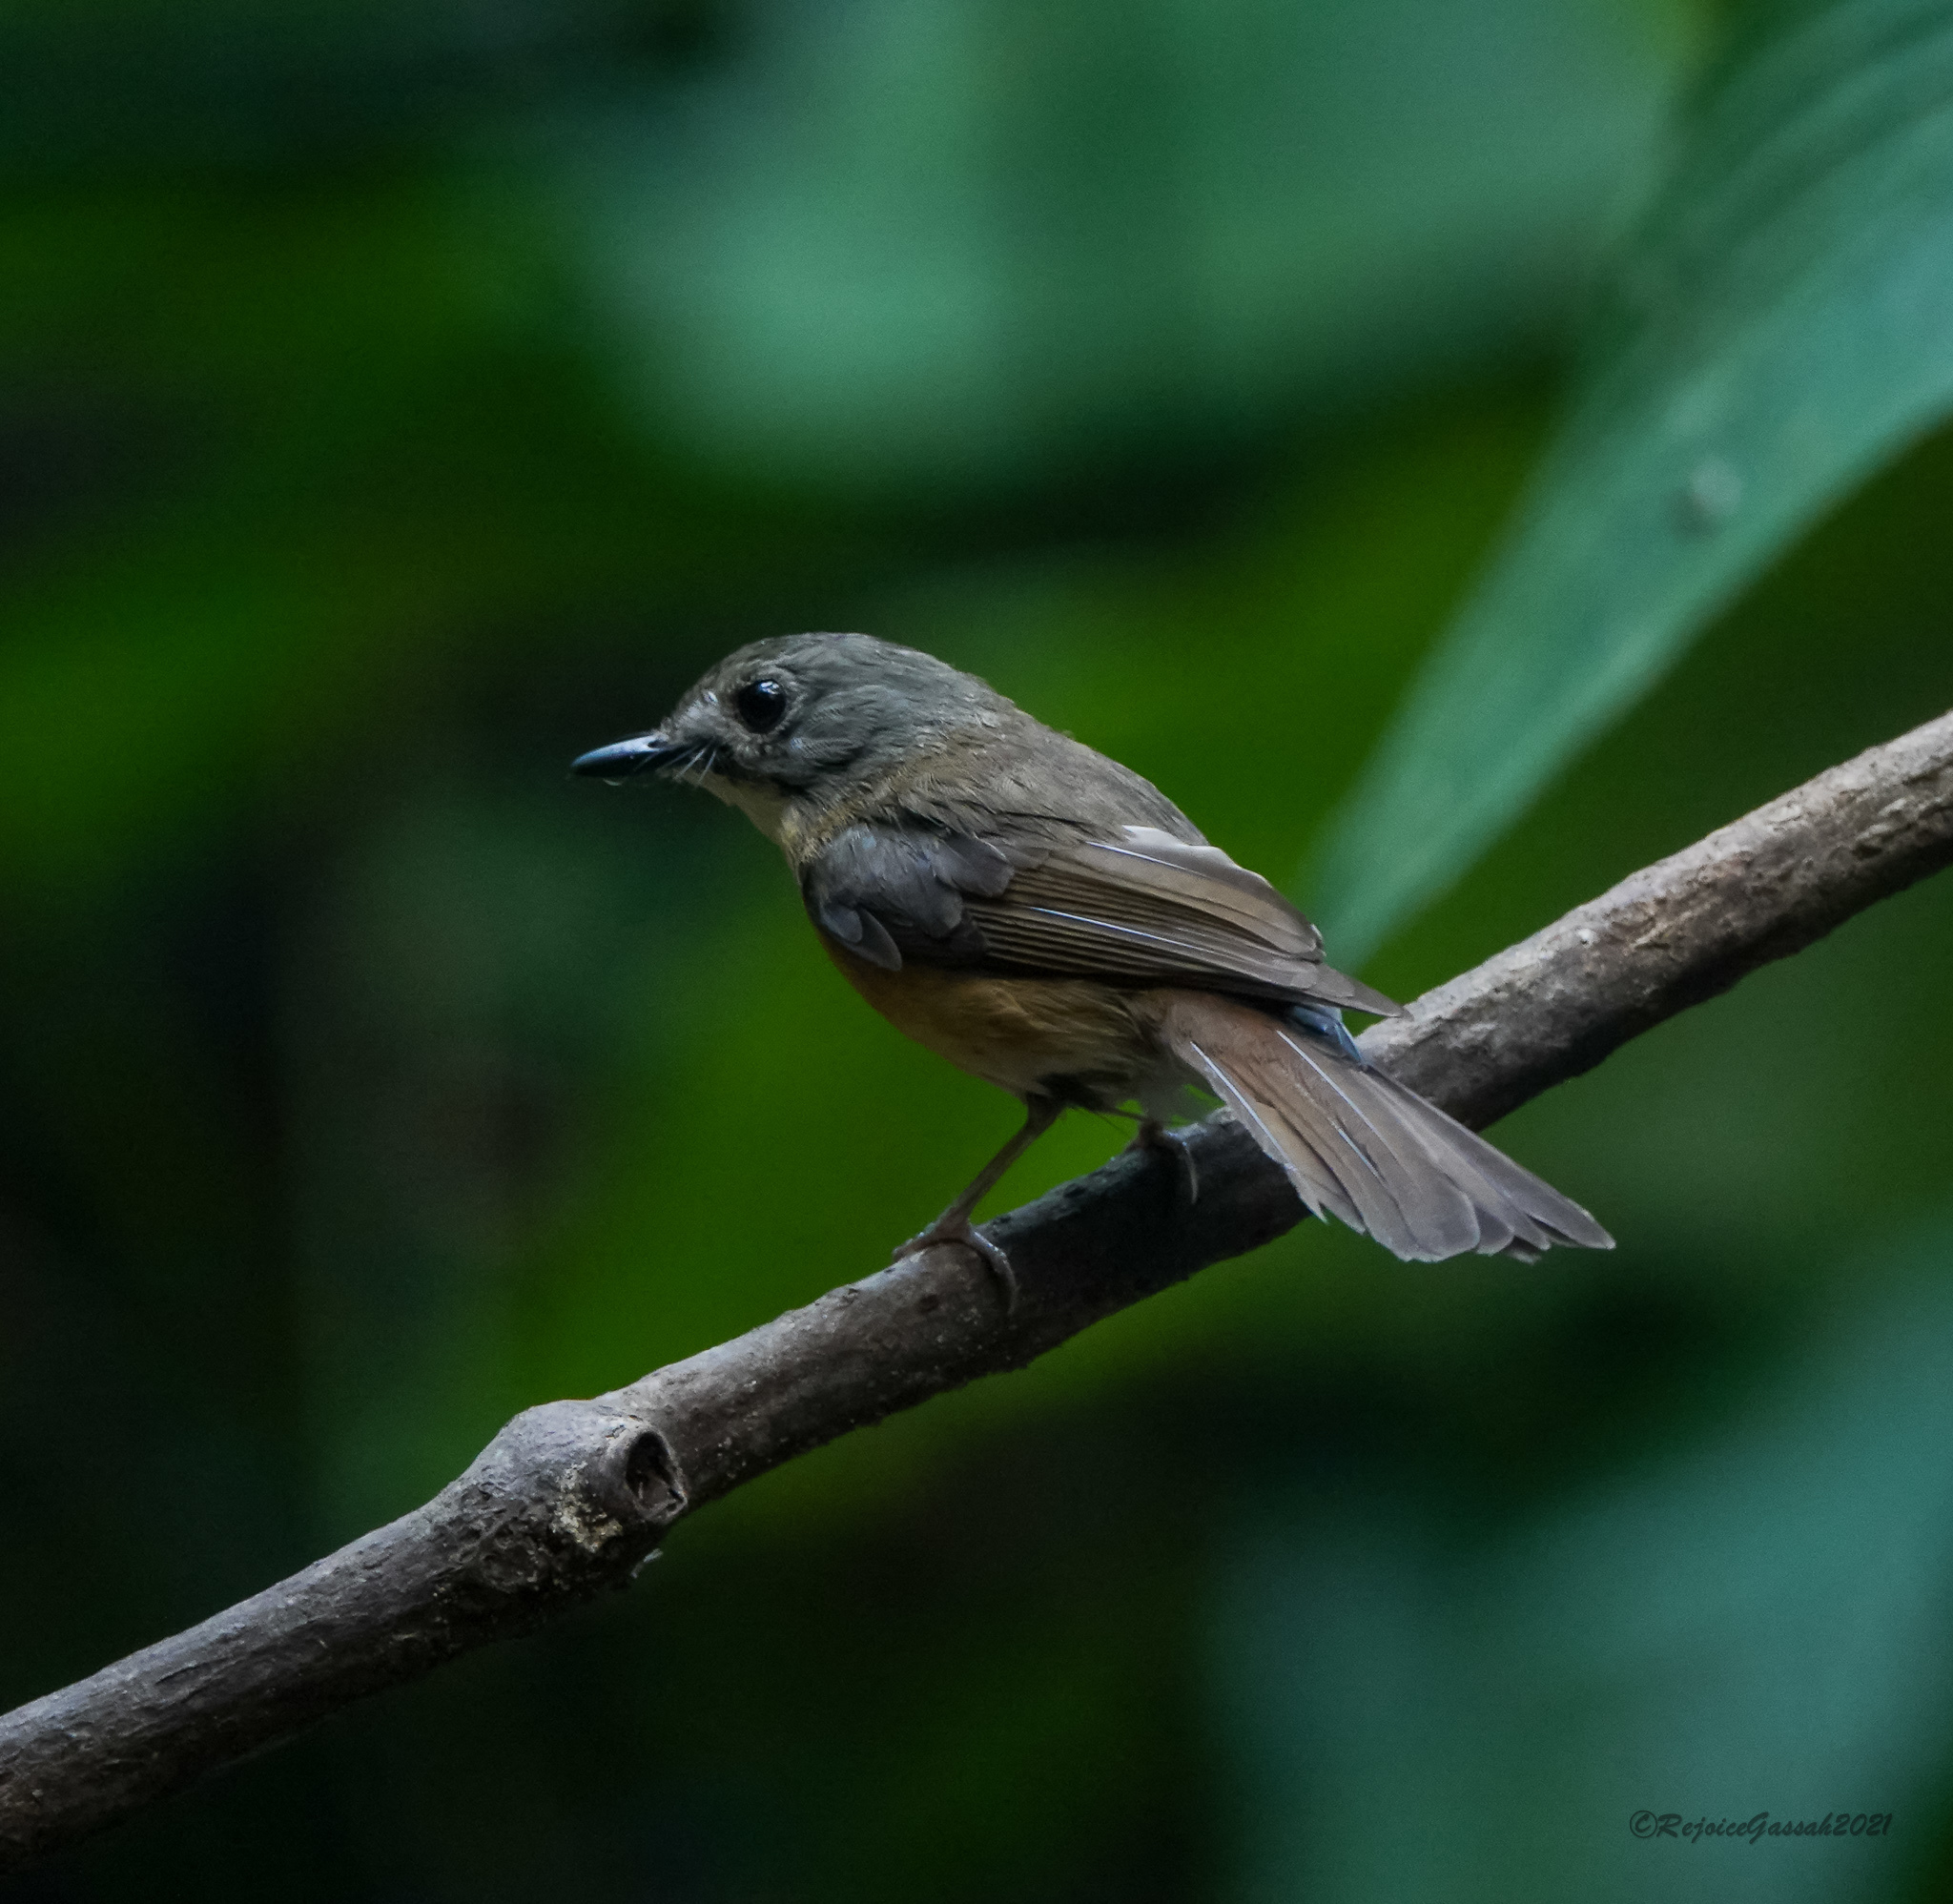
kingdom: Animalia
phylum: Chordata
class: Aves
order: Passeriformes
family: Muscicapidae
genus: Cyornis
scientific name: Cyornis poliogenys
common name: Pale-chinned blue flycatcher
